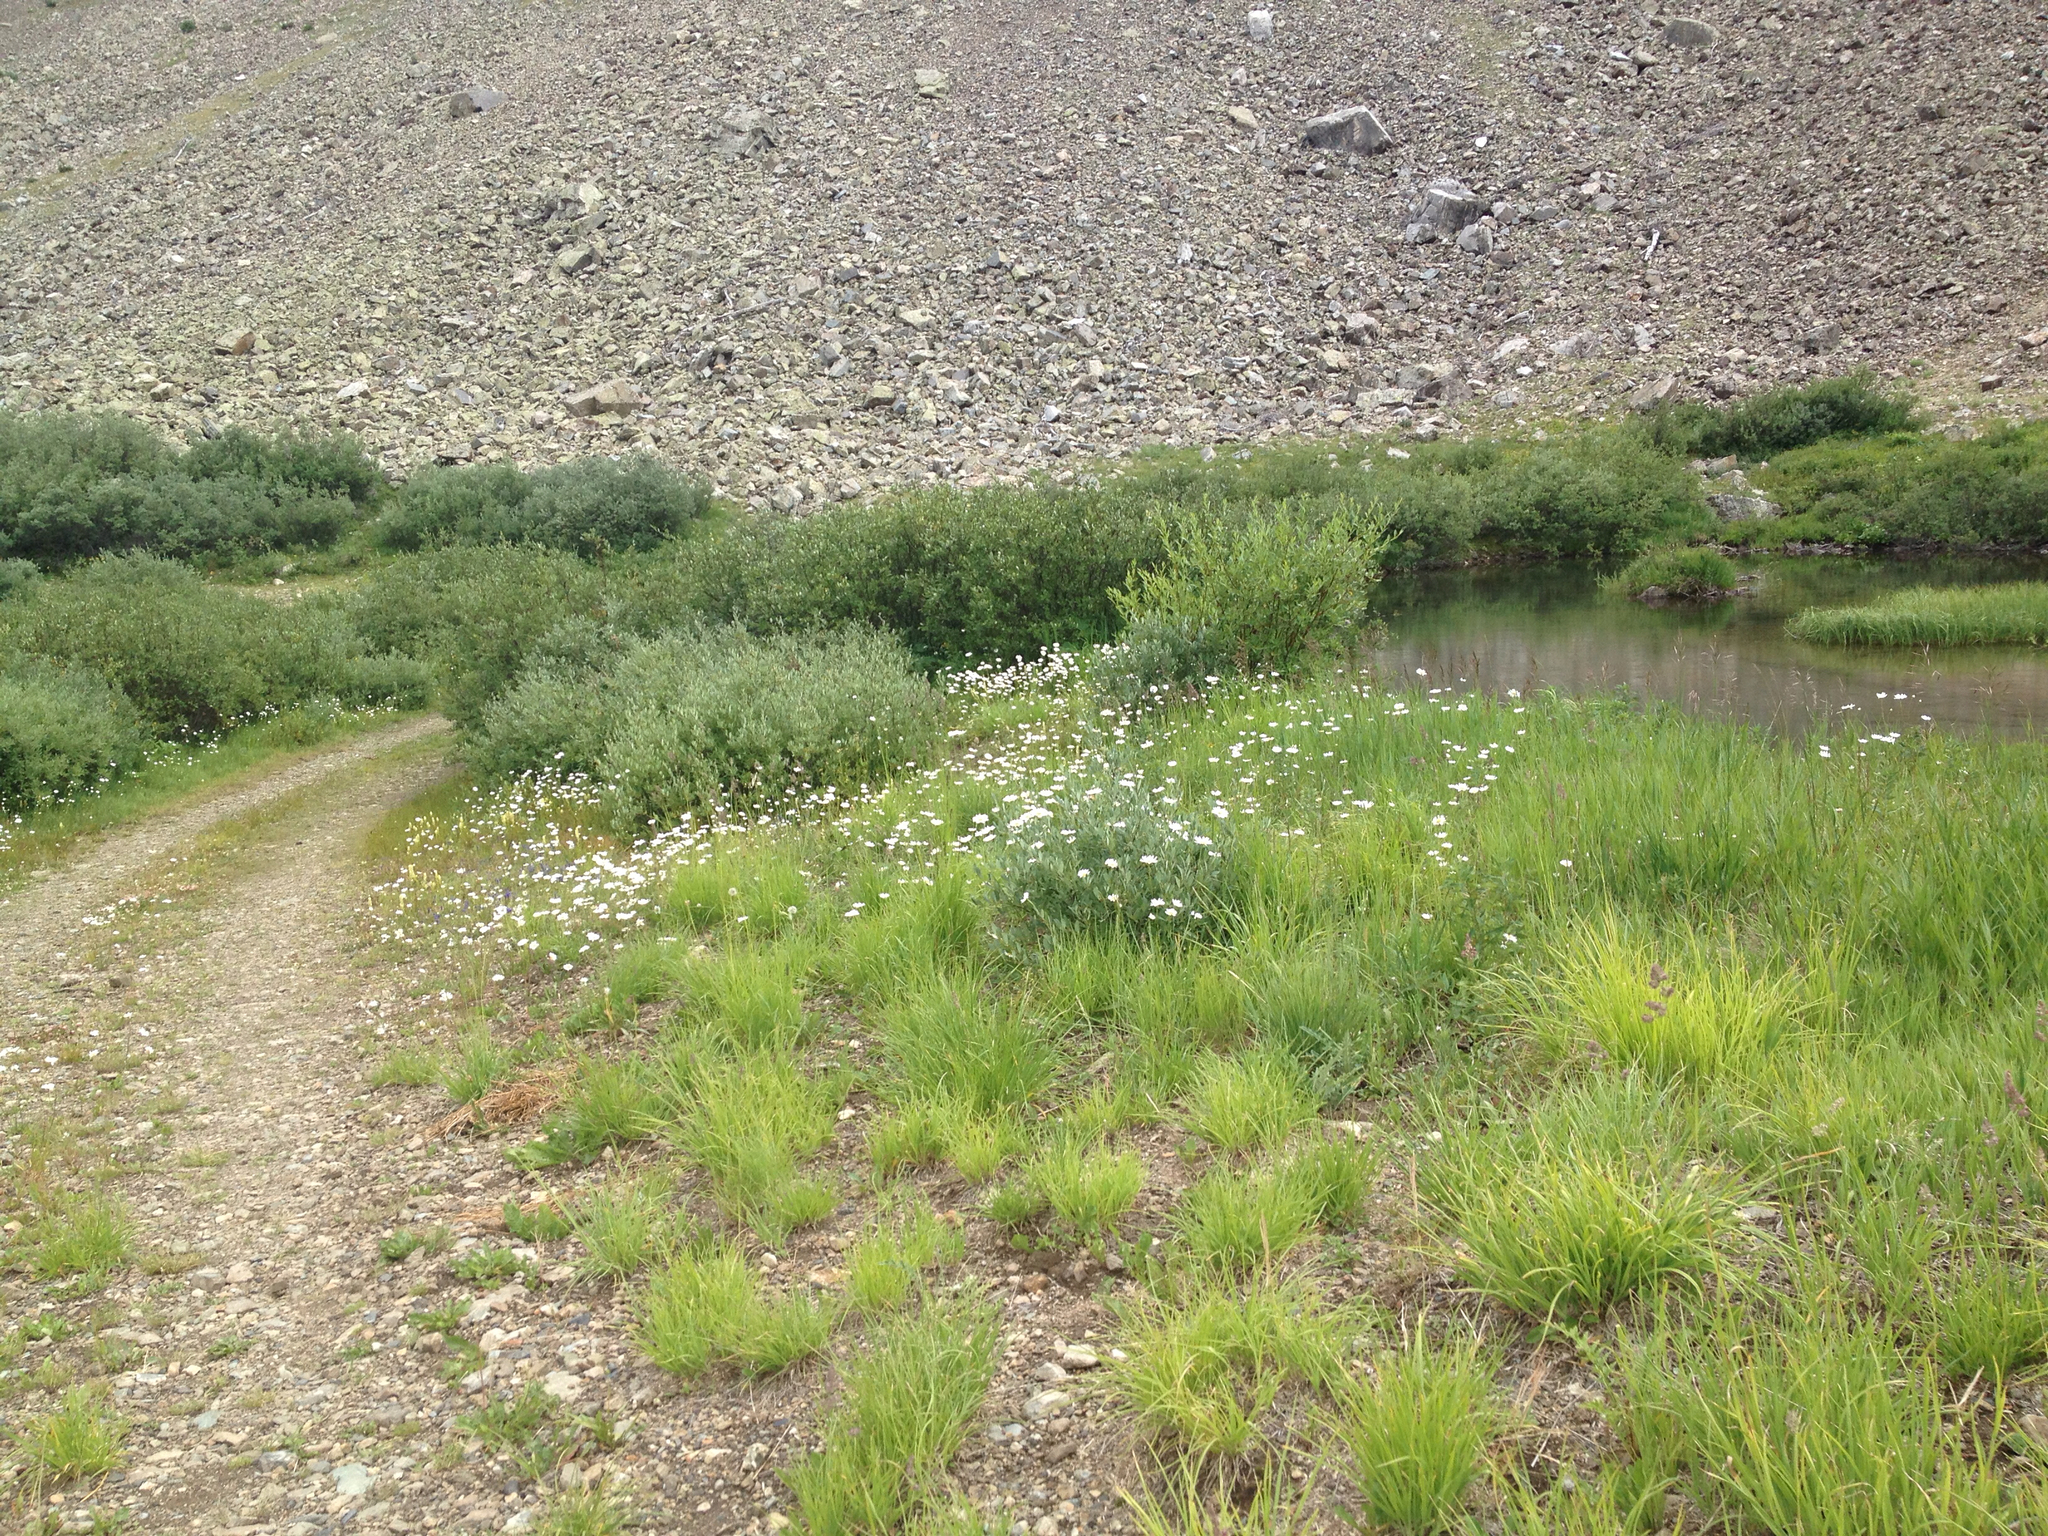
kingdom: Plantae
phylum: Tracheophyta
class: Magnoliopsida
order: Asterales
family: Asteraceae
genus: Leucanthemum
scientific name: Leucanthemum vulgare
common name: Oxeye daisy
